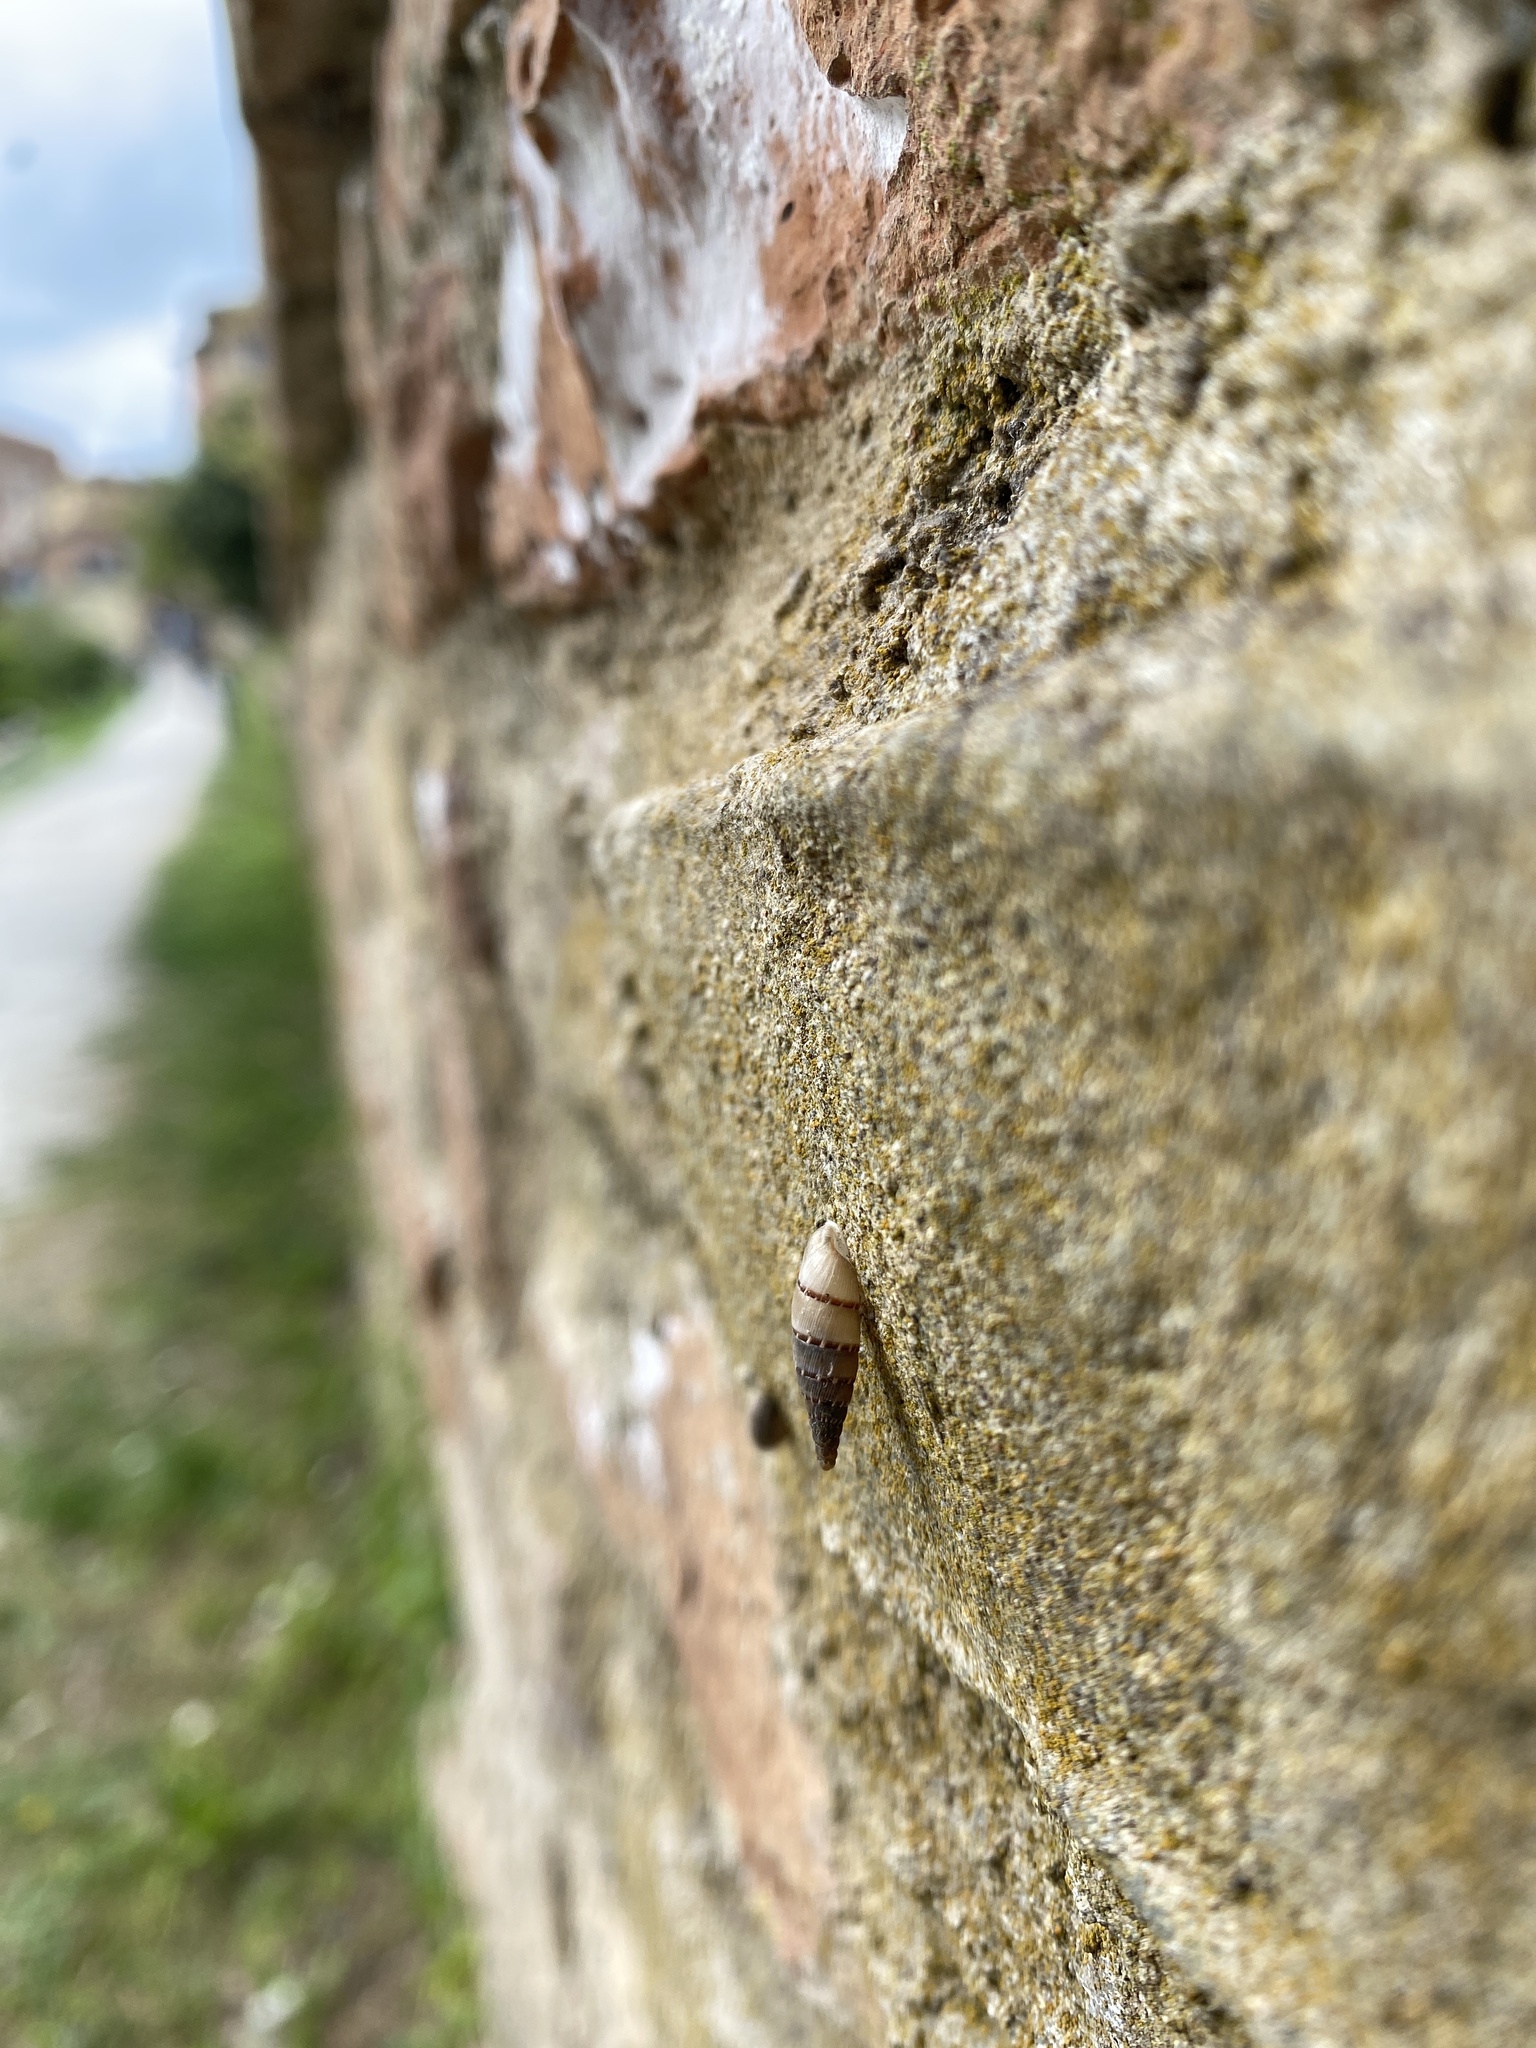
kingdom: Animalia
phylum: Mollusca
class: Gastropoda
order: Stylommatophora
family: Clausiliidae
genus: Papillifera
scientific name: Papillifera papillaris
